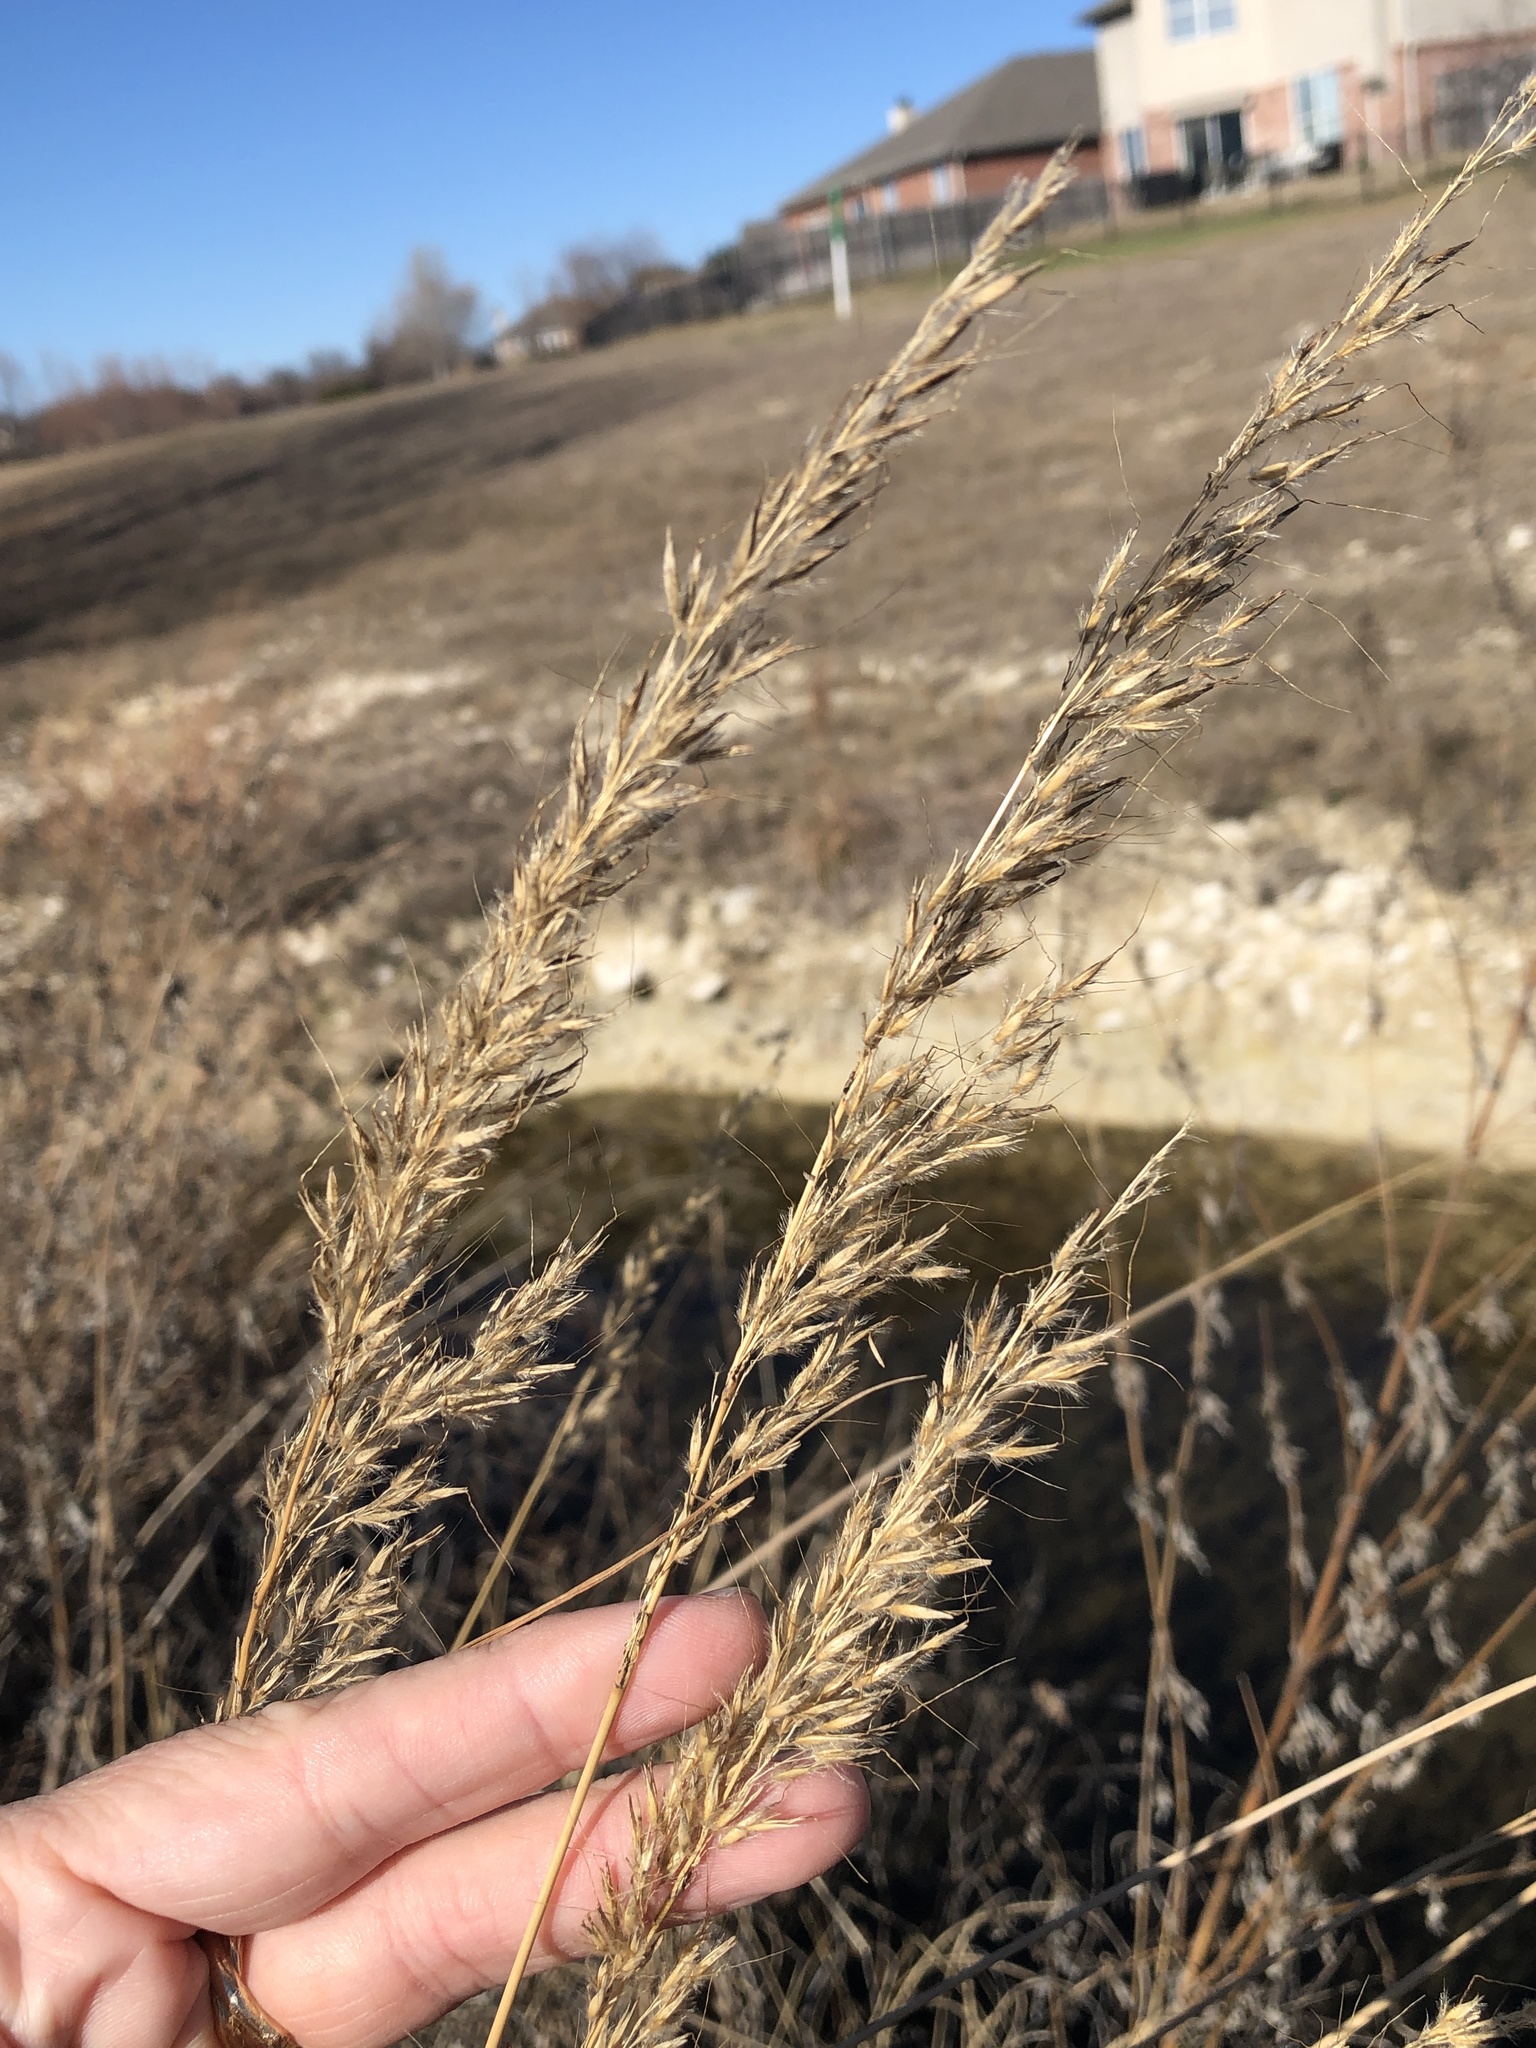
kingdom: Plantae
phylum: Tracheophyta
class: Liliopsida
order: Poales
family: Poaceae
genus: Sorghastrum
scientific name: Sorghastrum nutans
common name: Indian grass
